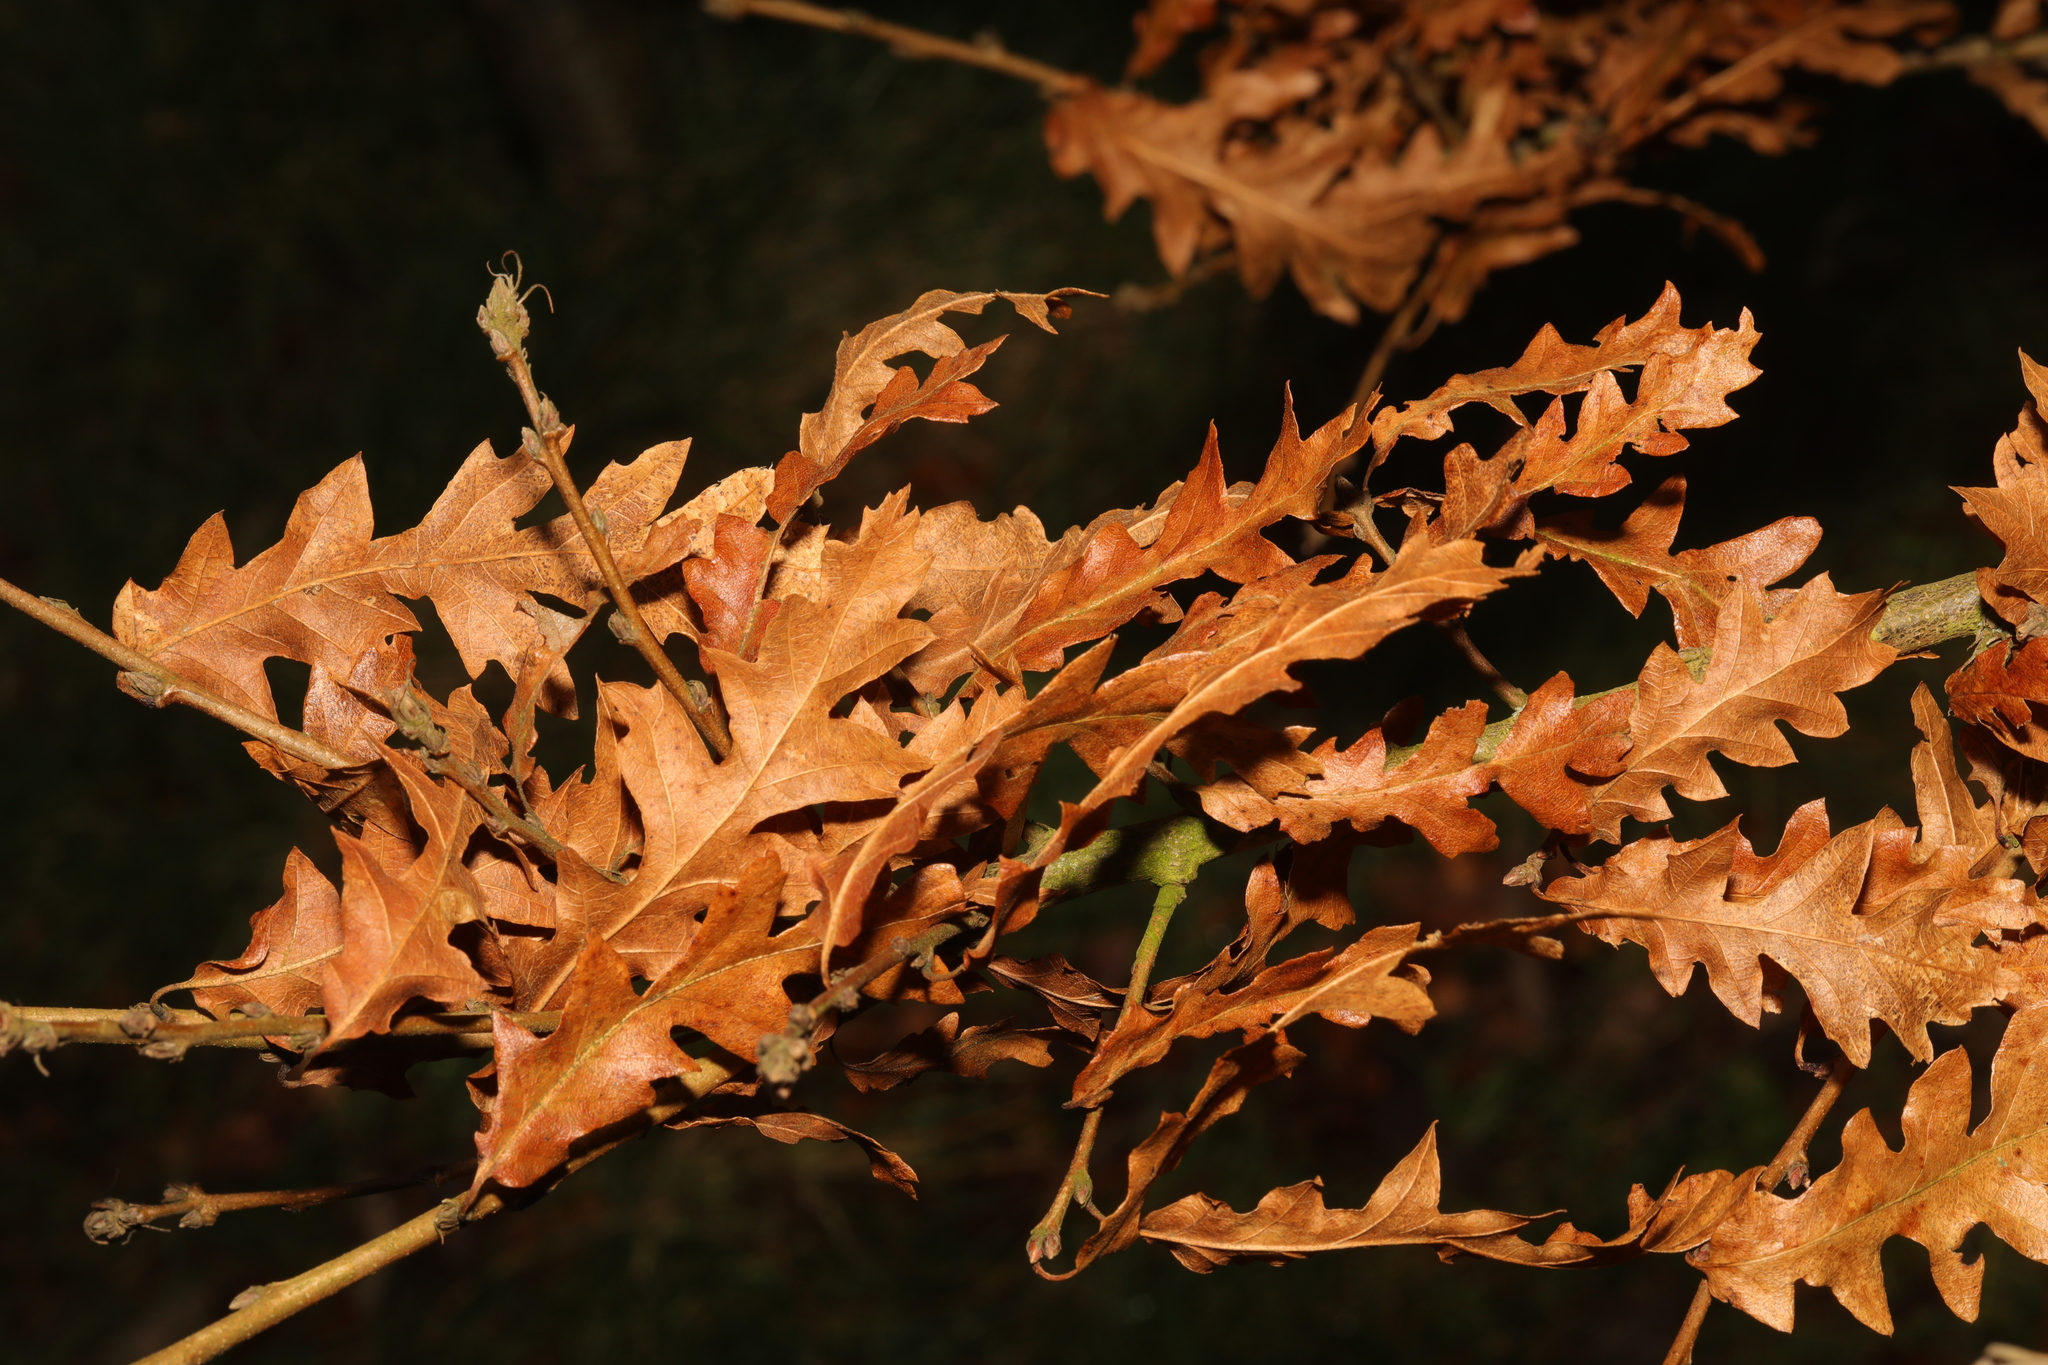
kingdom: Plantae
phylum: Tracheophyta
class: Magnoliopsida
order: Fagales
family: Fagaceae
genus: Quercus
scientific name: Quercus cerris
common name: Turkey oak
